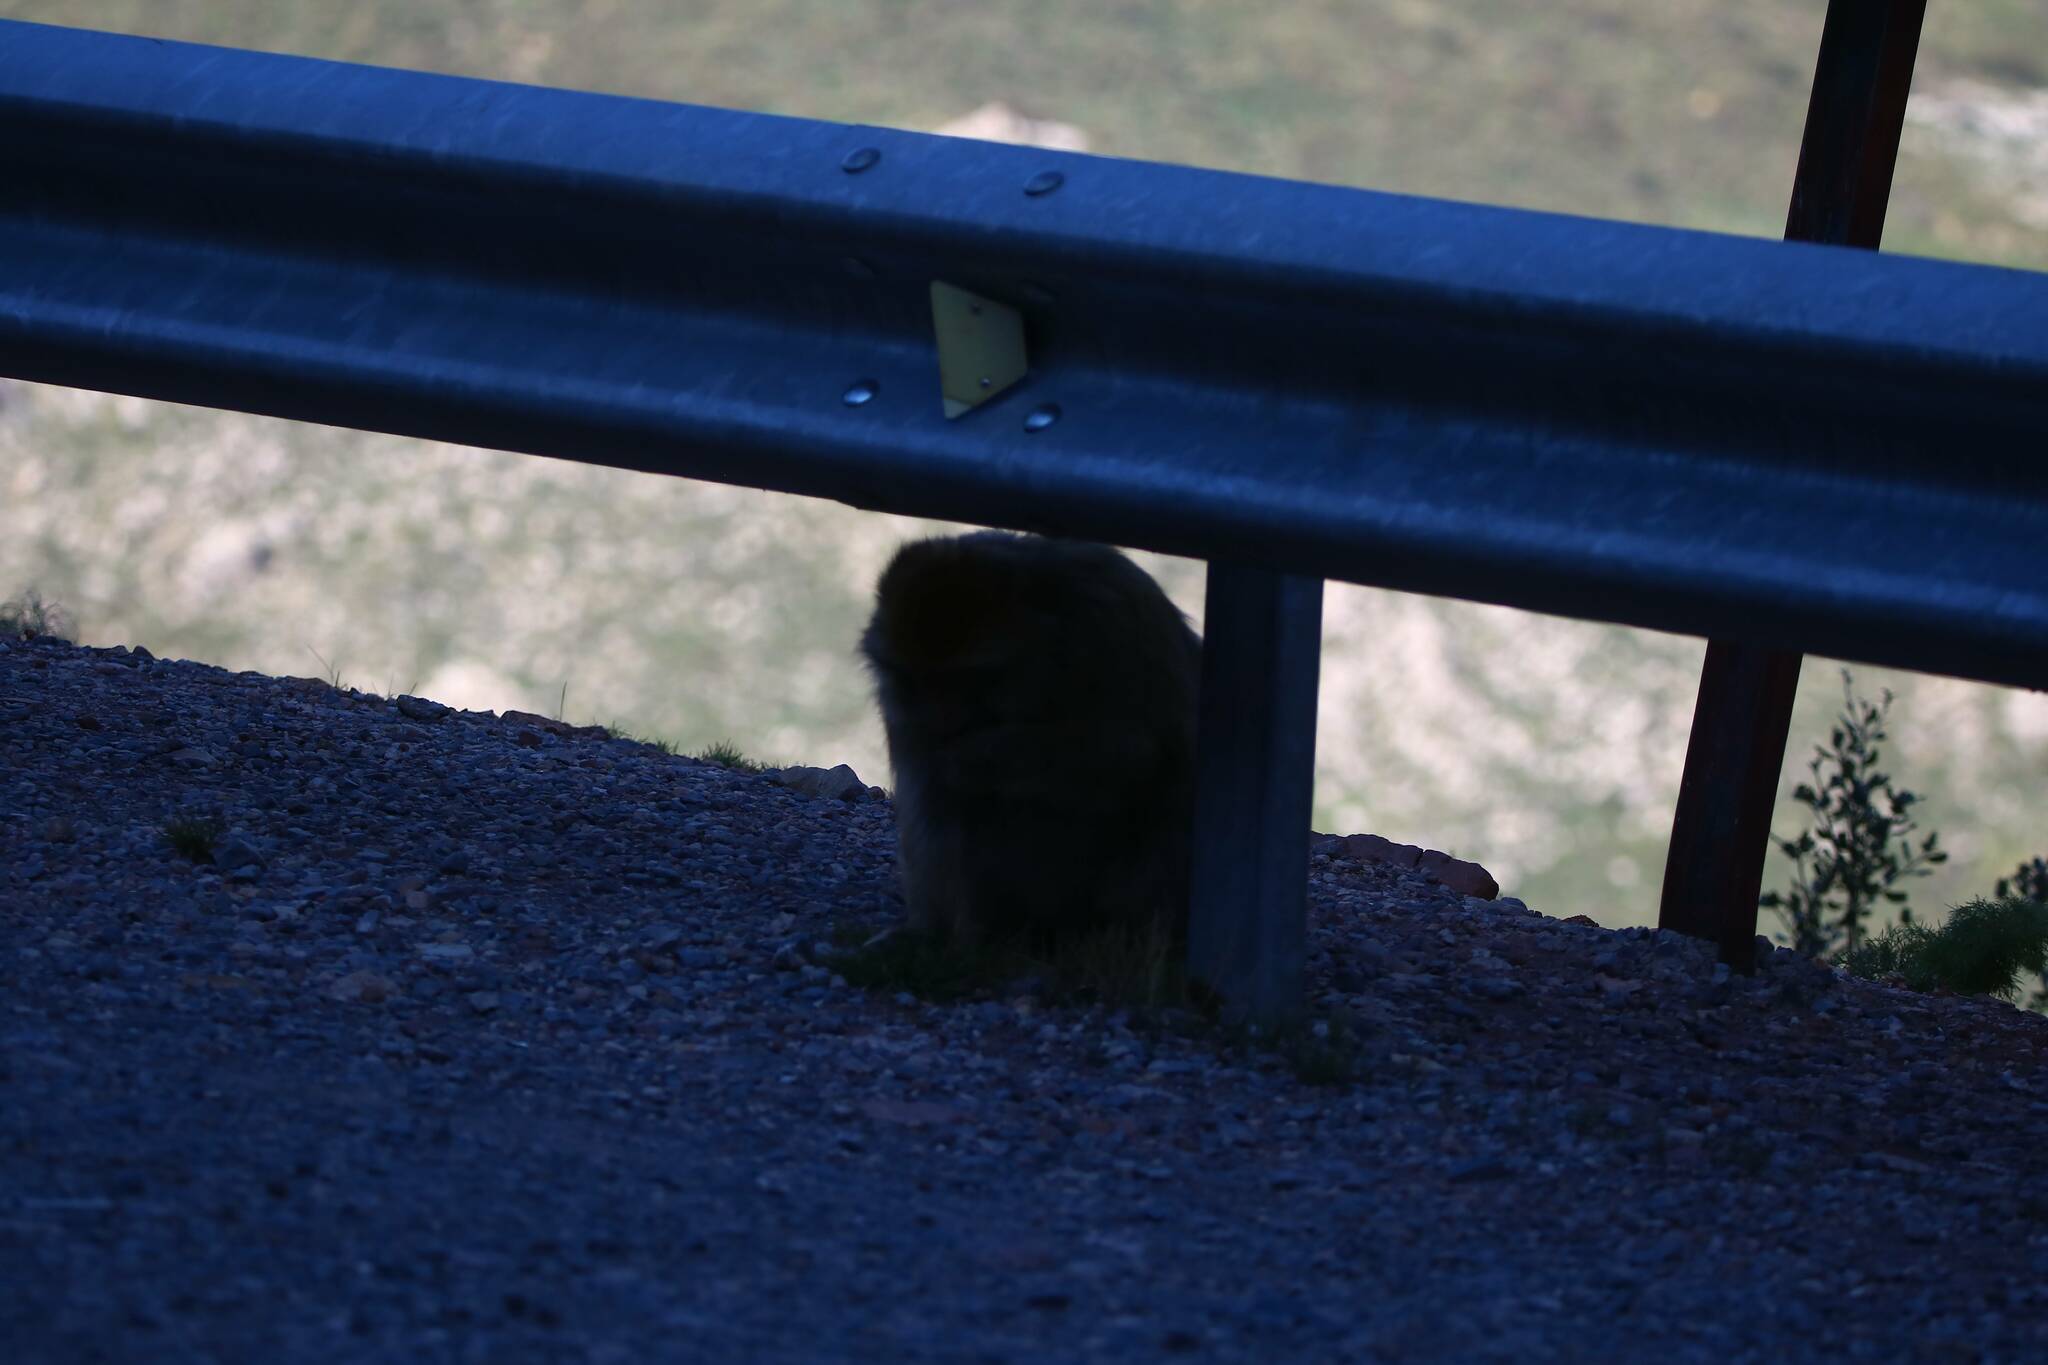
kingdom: Animalia
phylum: Chordata
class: Mammalia
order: Primates
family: Cercopithecidae
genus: Macaca
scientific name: Macaca sylvanus
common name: Barbary macaque
